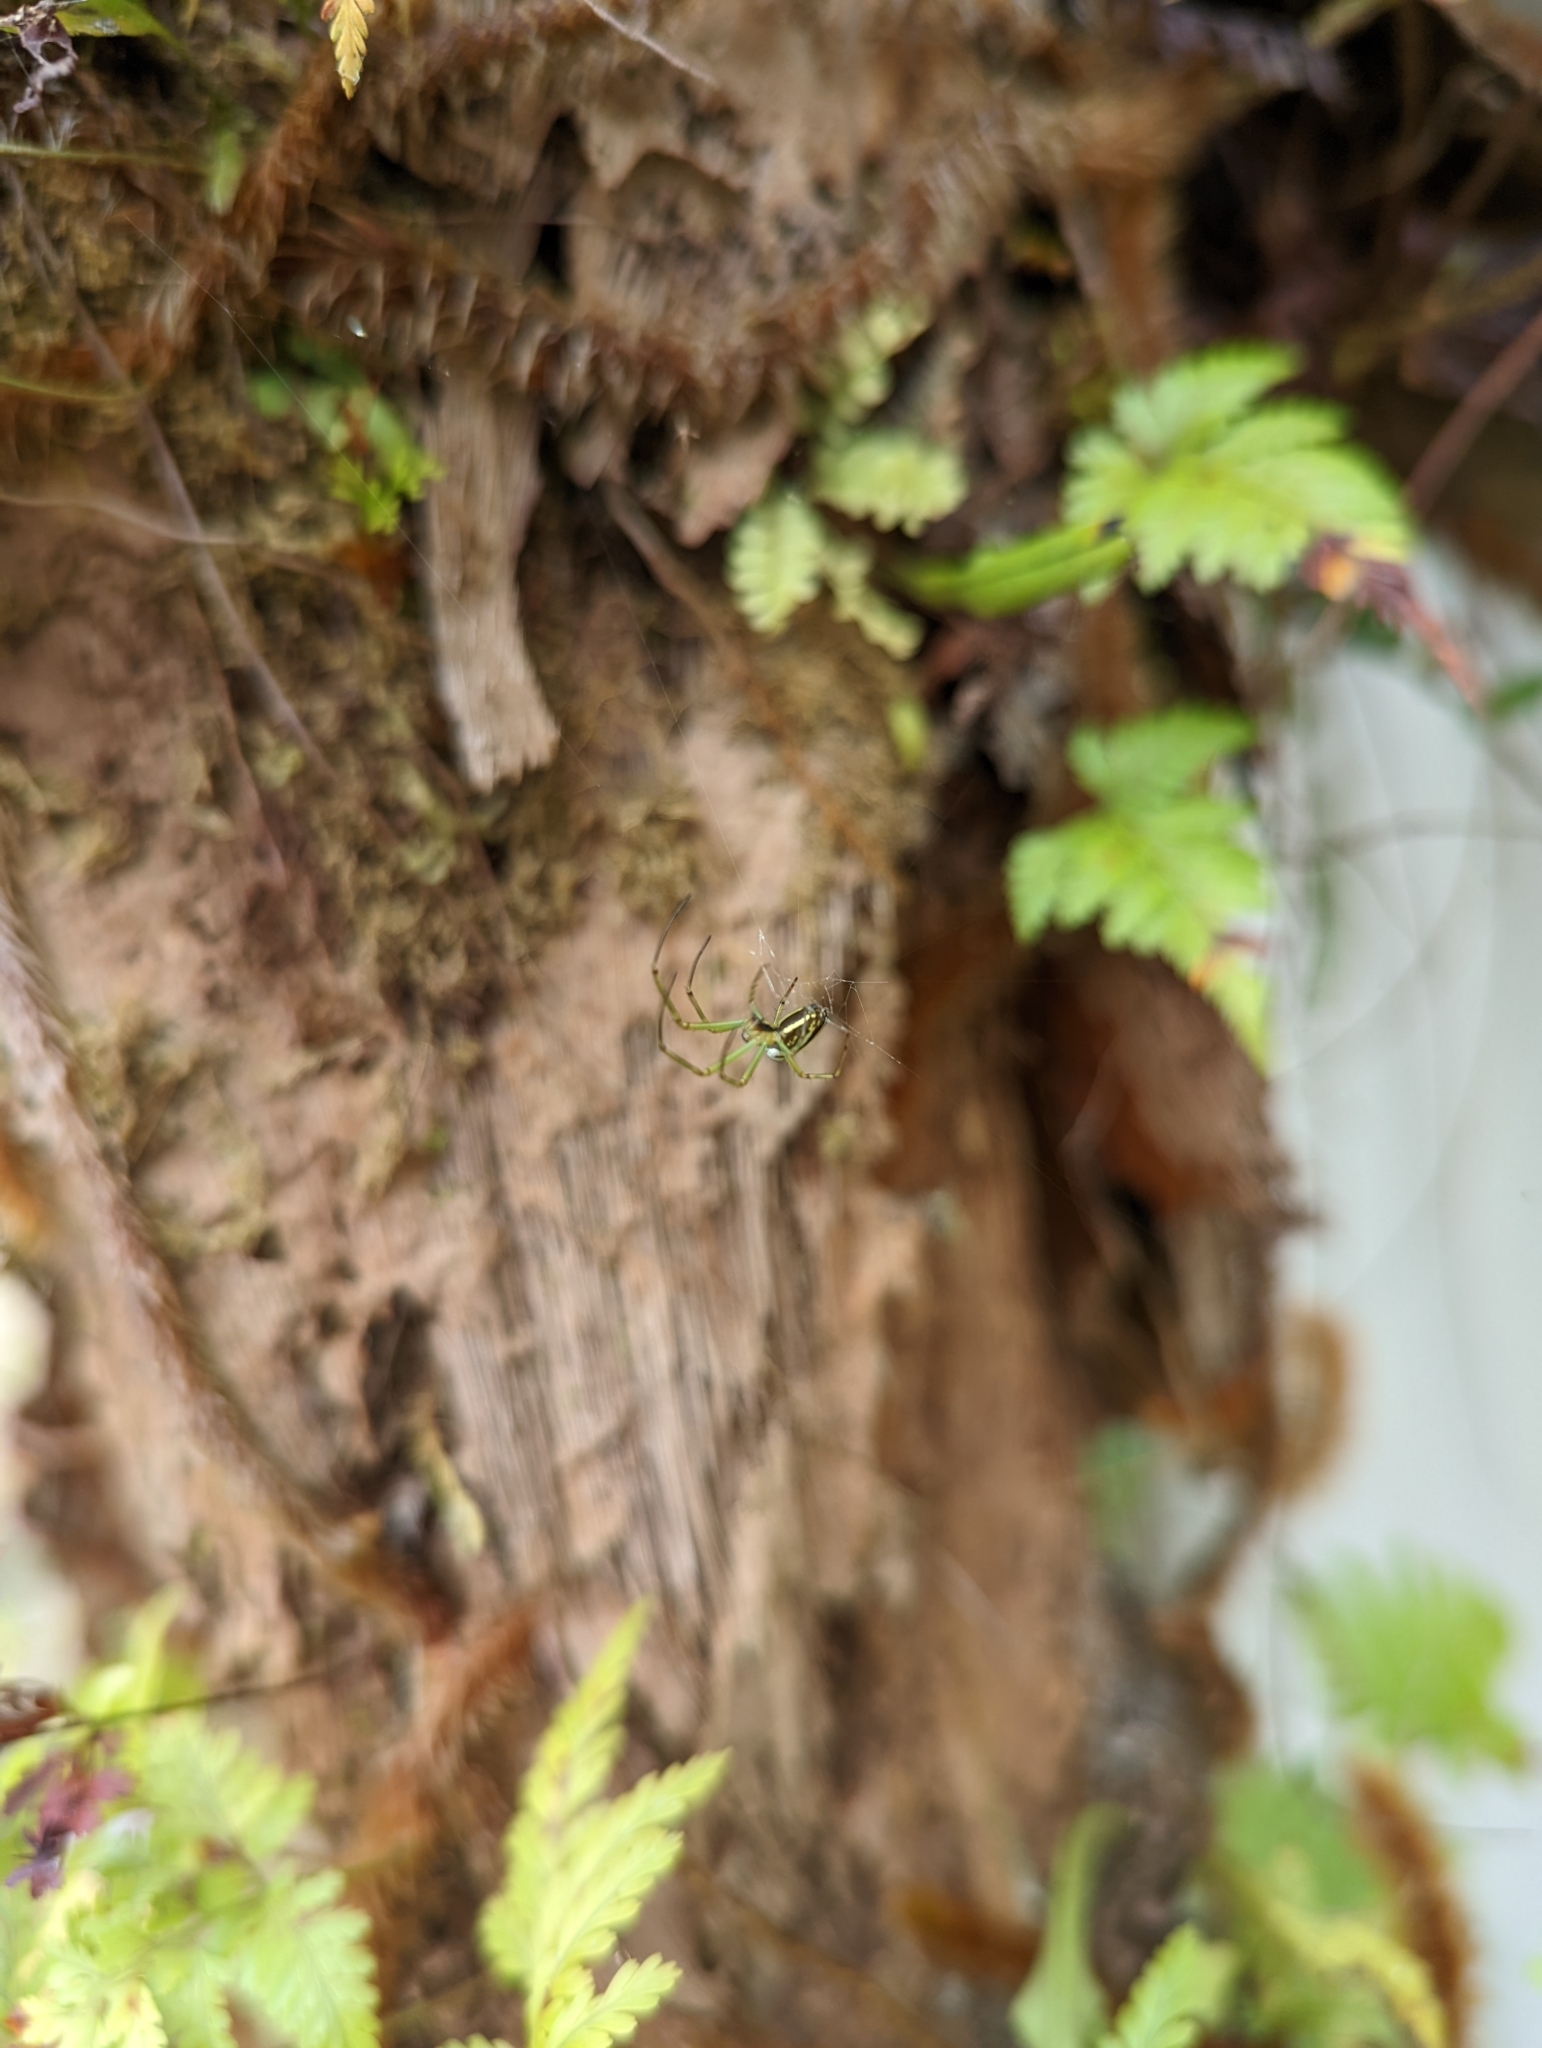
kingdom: Animalia
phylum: Arthropoda
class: Arachnida
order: Araneae
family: Tetragnathidae
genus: Leucauge
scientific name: Leucauge celebesiana
